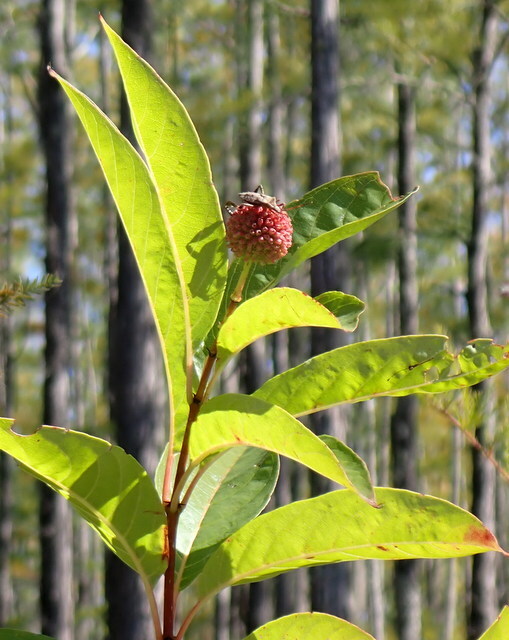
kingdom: Plantae
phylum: Tracheophyta
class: Magnoliopsida
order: Gentianales
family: Rubiaceae
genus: Cephalanthus
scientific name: Cephalanthus occidentalis
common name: Button-willow
